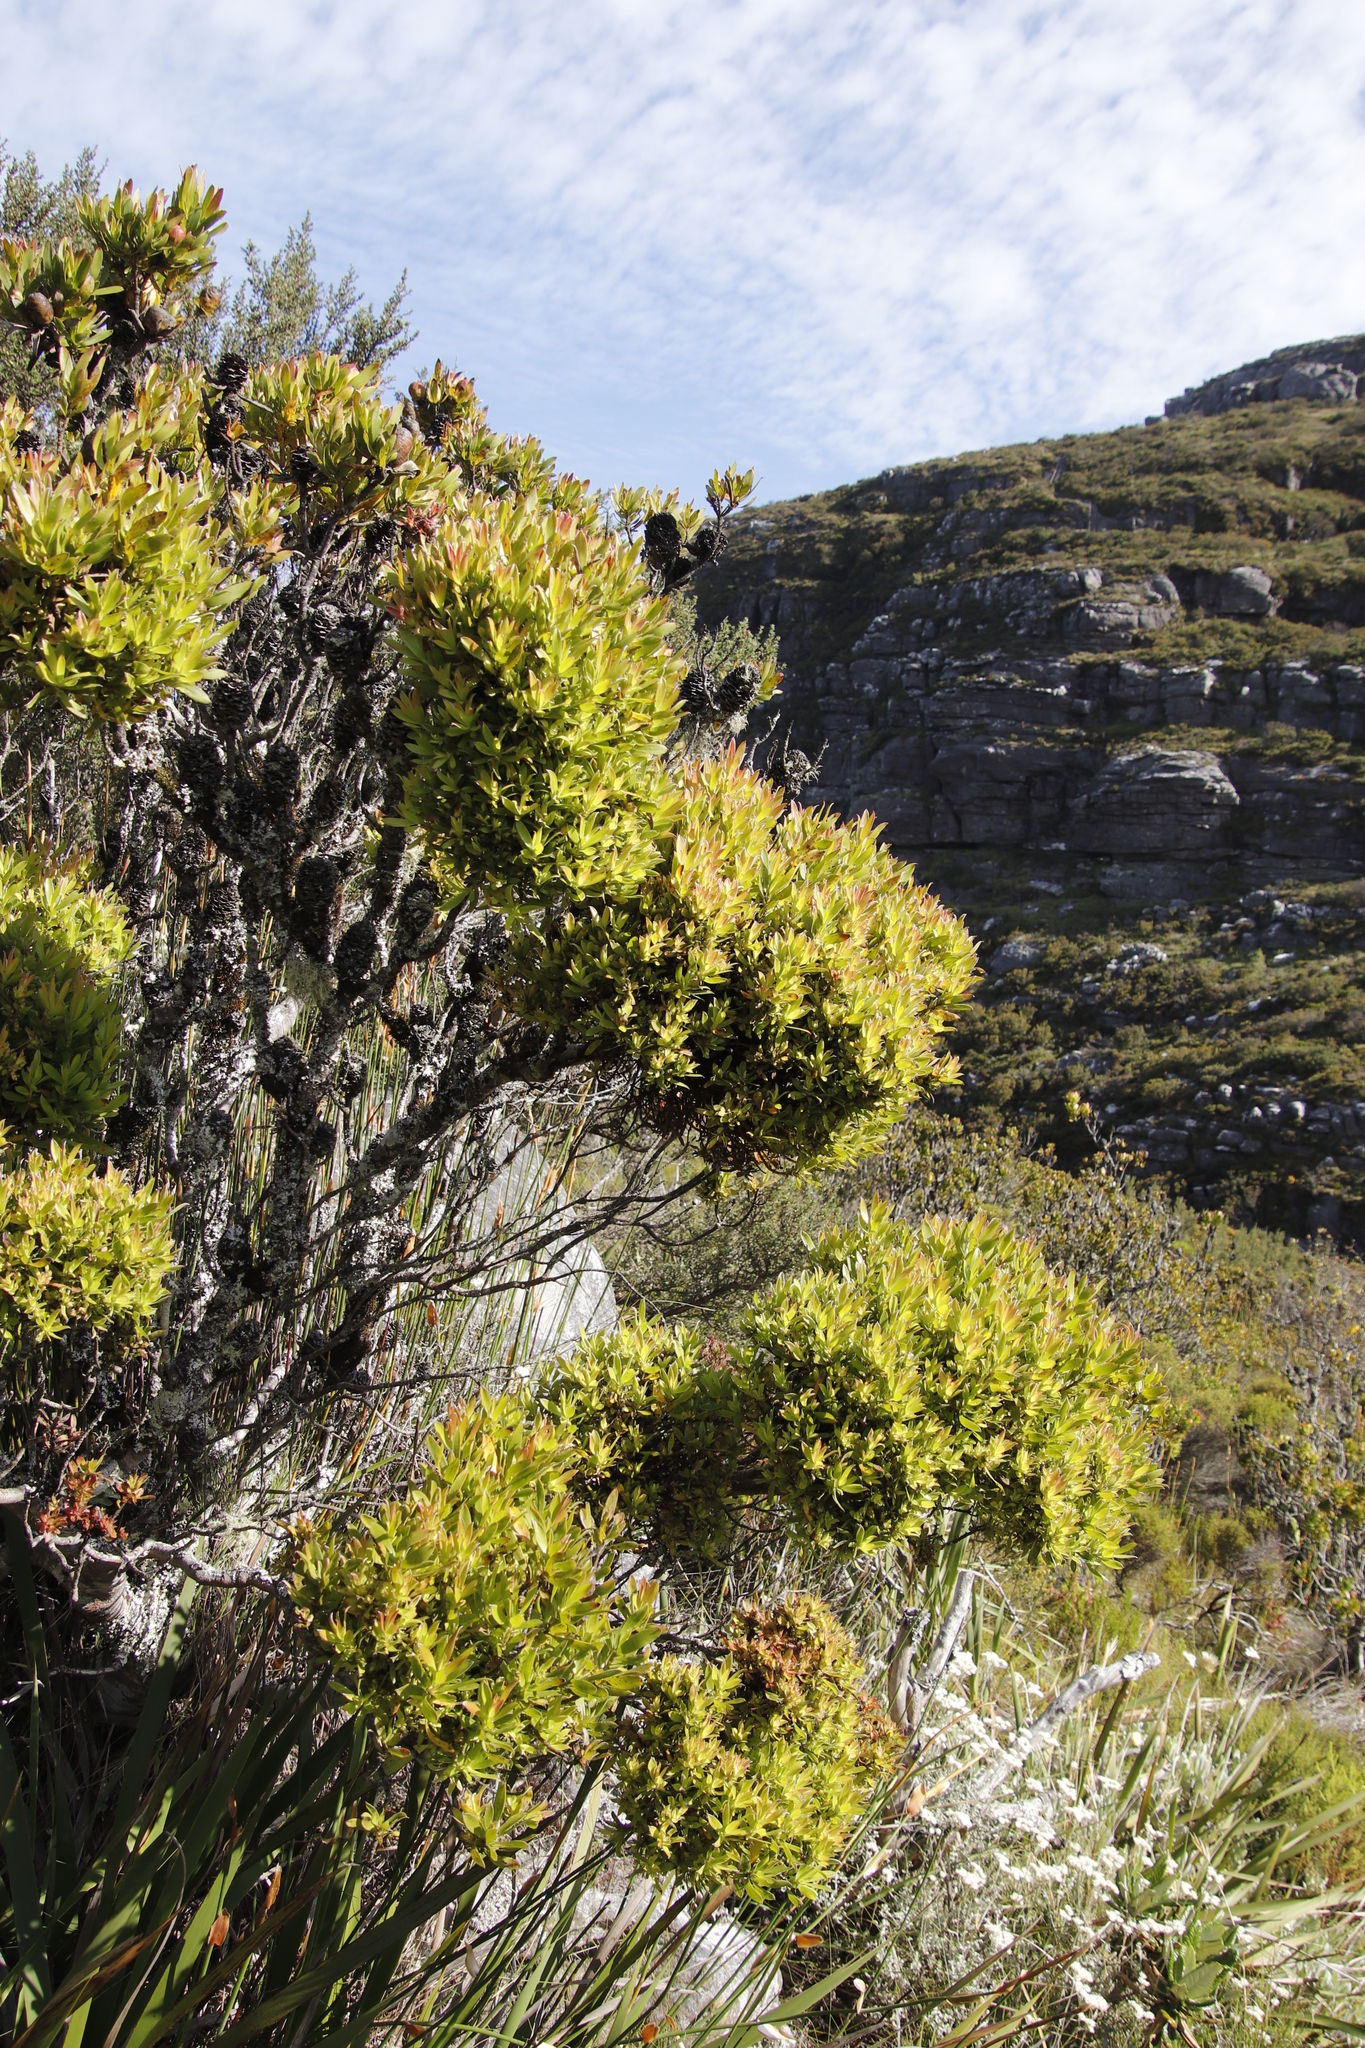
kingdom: Bacteria
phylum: Firmicutes
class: Bacilli
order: Acholeplasmatales
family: Acholeplasmataceae
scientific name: Acholeplasmataceae
